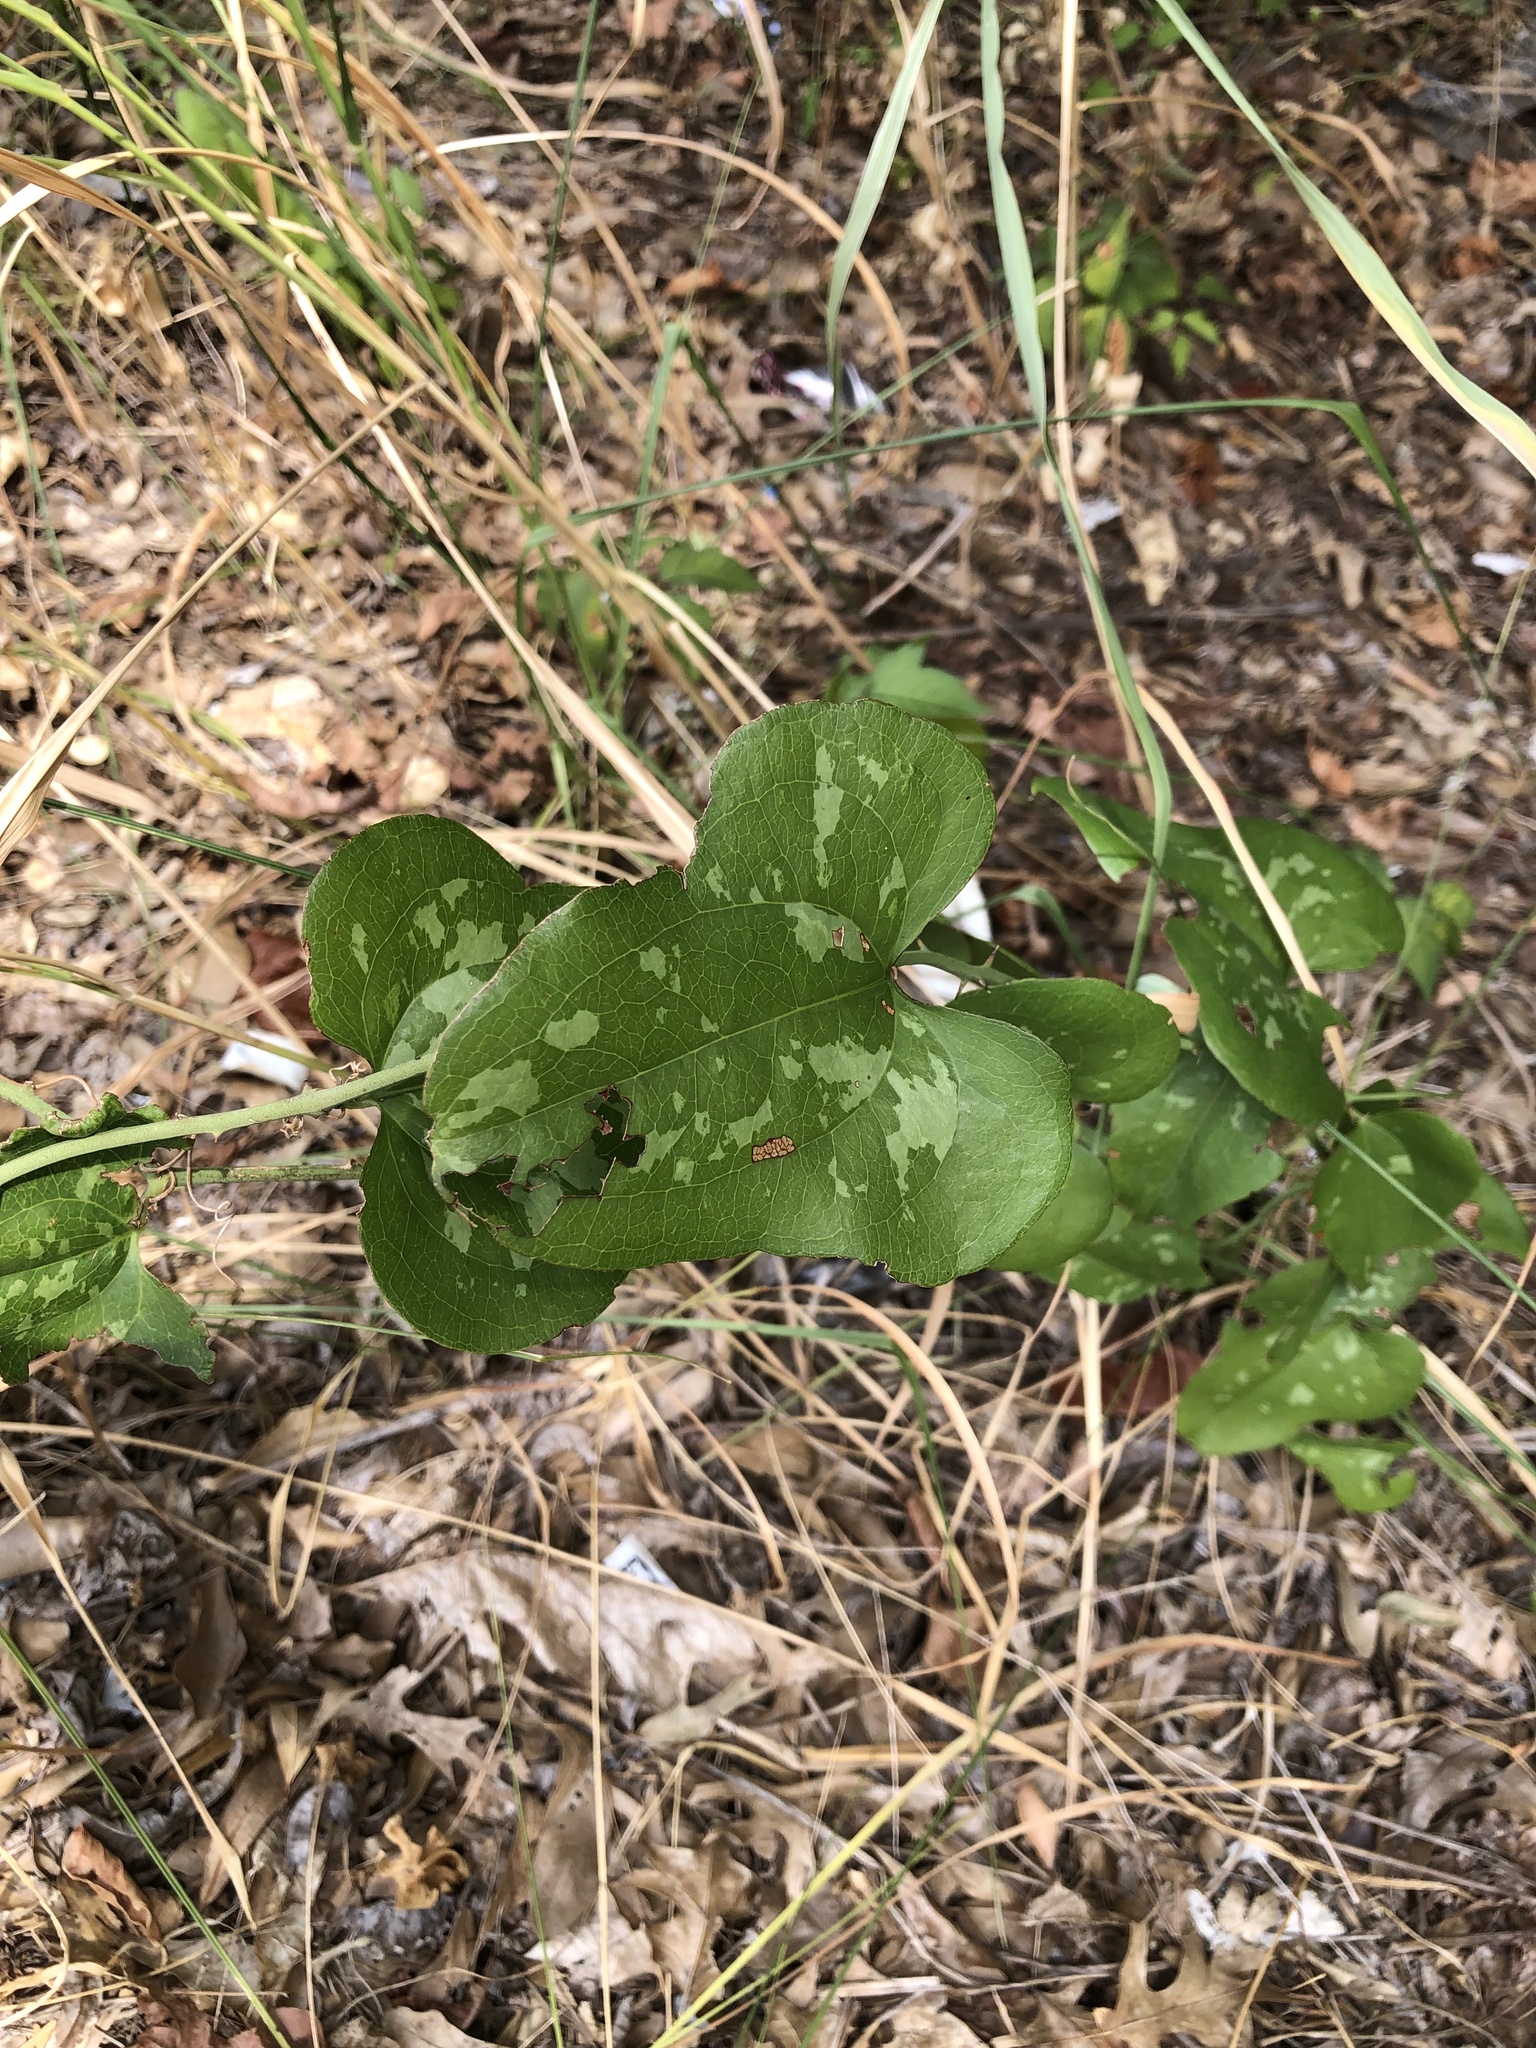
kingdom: Plantae
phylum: Tracheophyta
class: Liliopsida
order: Liliales
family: Smilacaceae
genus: Smilax
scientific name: Smilax bona-nox
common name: Catbrier
